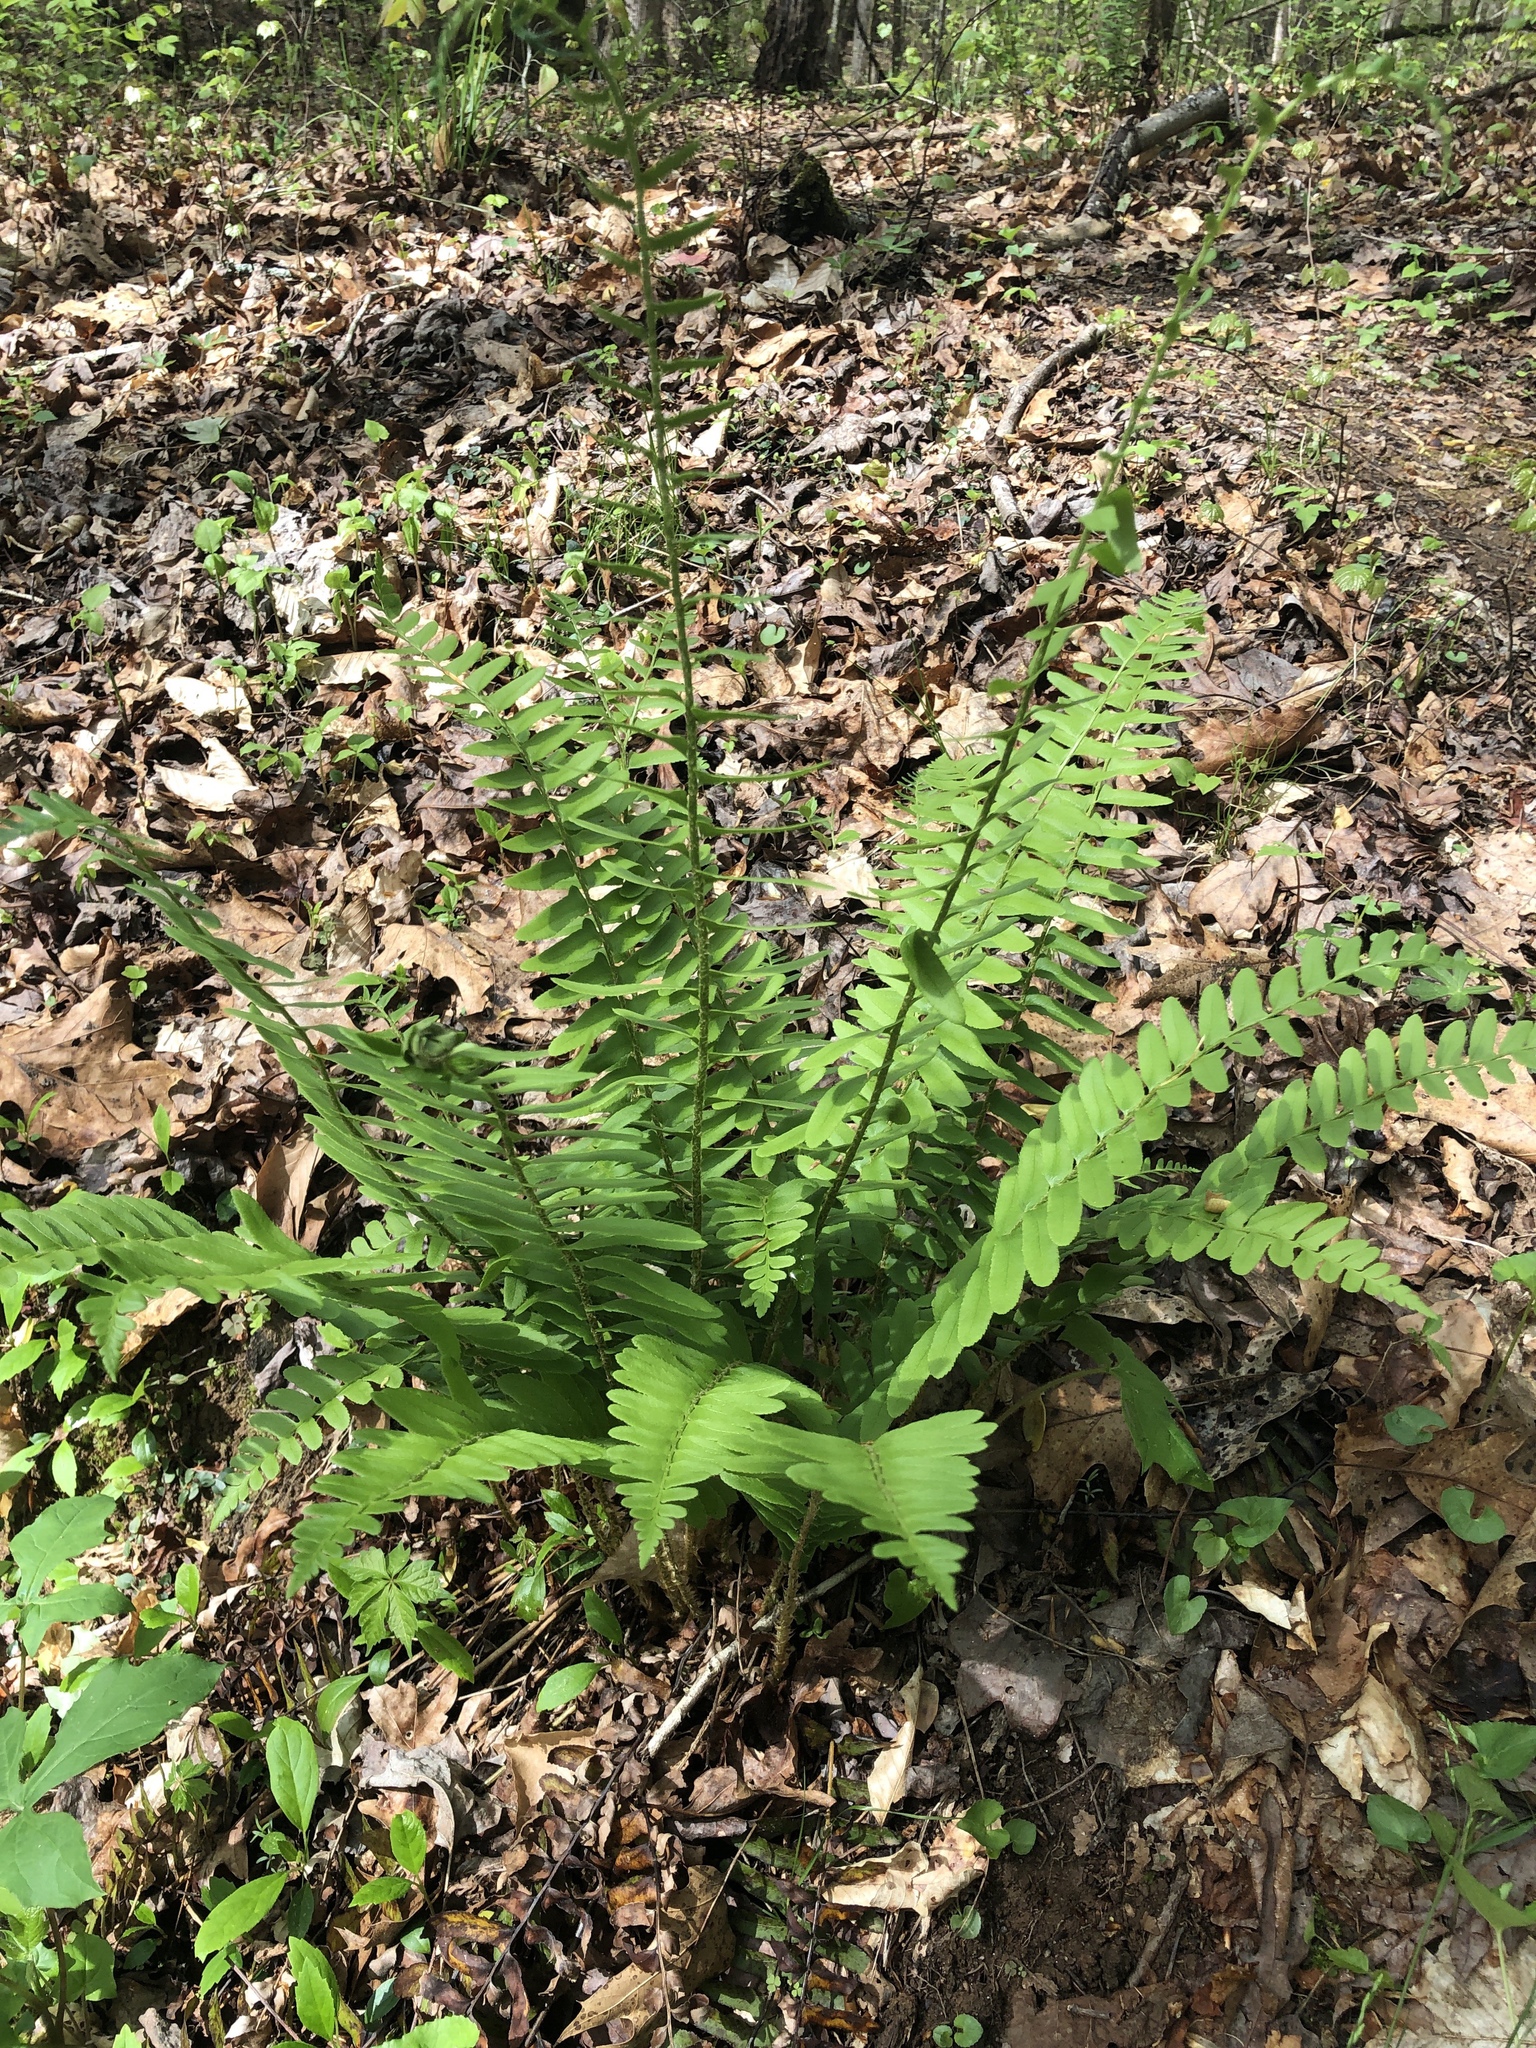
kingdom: Plantae
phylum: Tracheophyta
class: Polypodiopsida
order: Polypodiales
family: Dryopteridaceae
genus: Polystichum
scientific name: Polystichum acrostichoides
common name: Christmas fern
